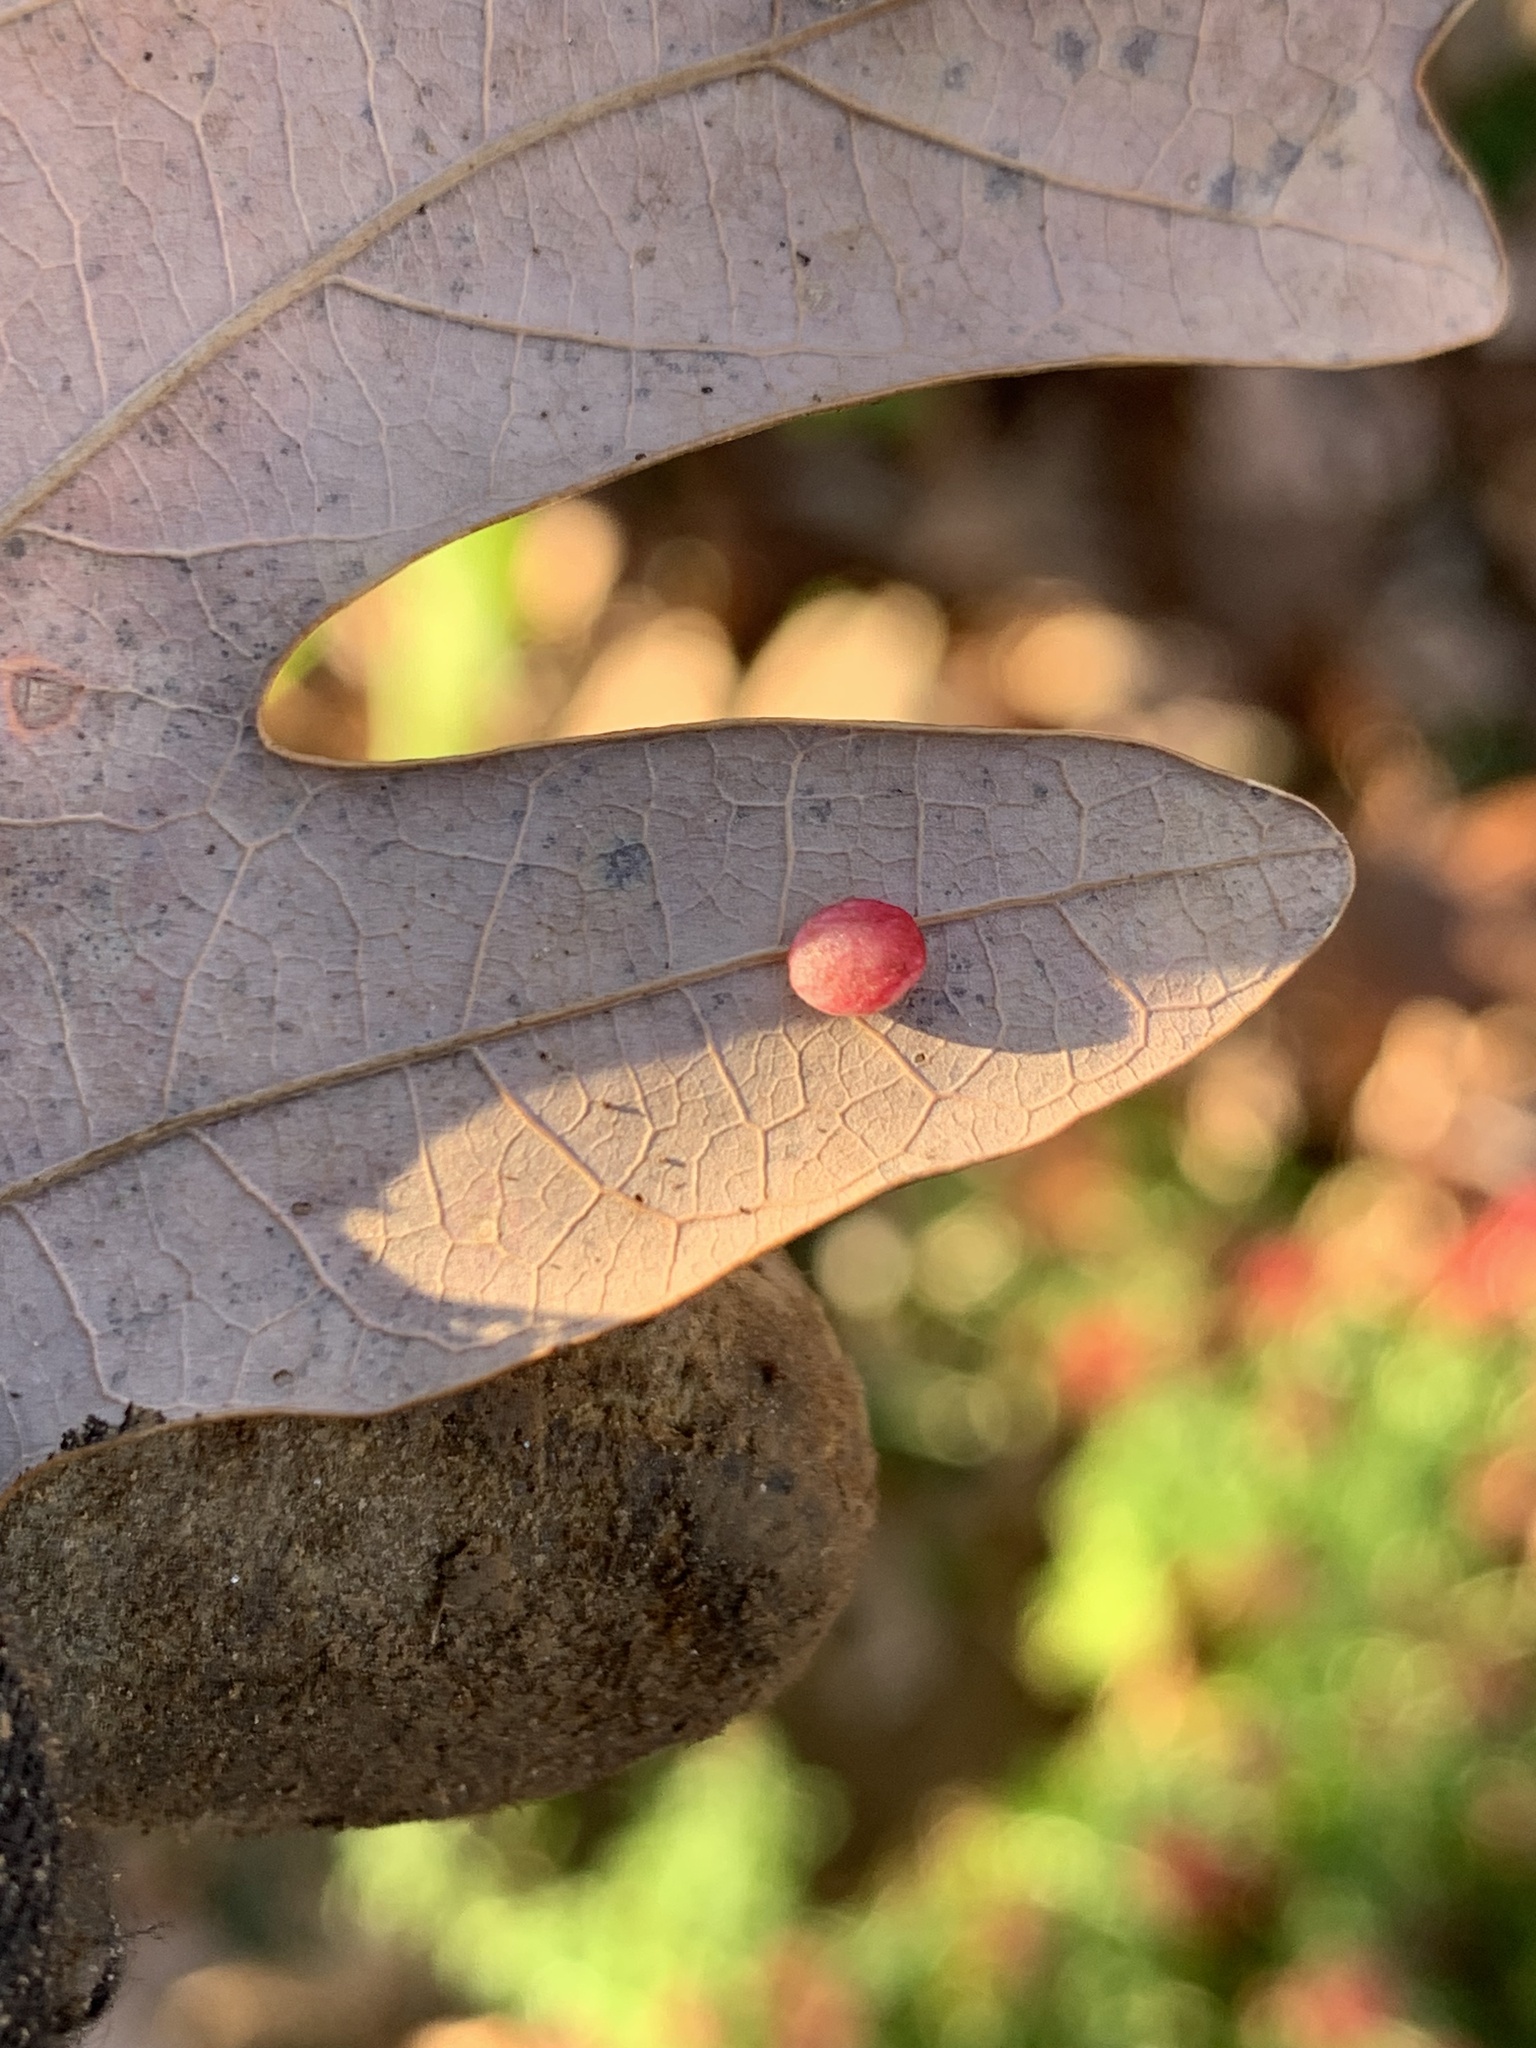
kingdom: Animalia
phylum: Arthropoda
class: Insecta
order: Hymenoptera
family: Cynipidae
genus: Phylloteras
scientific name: Phylloteras
